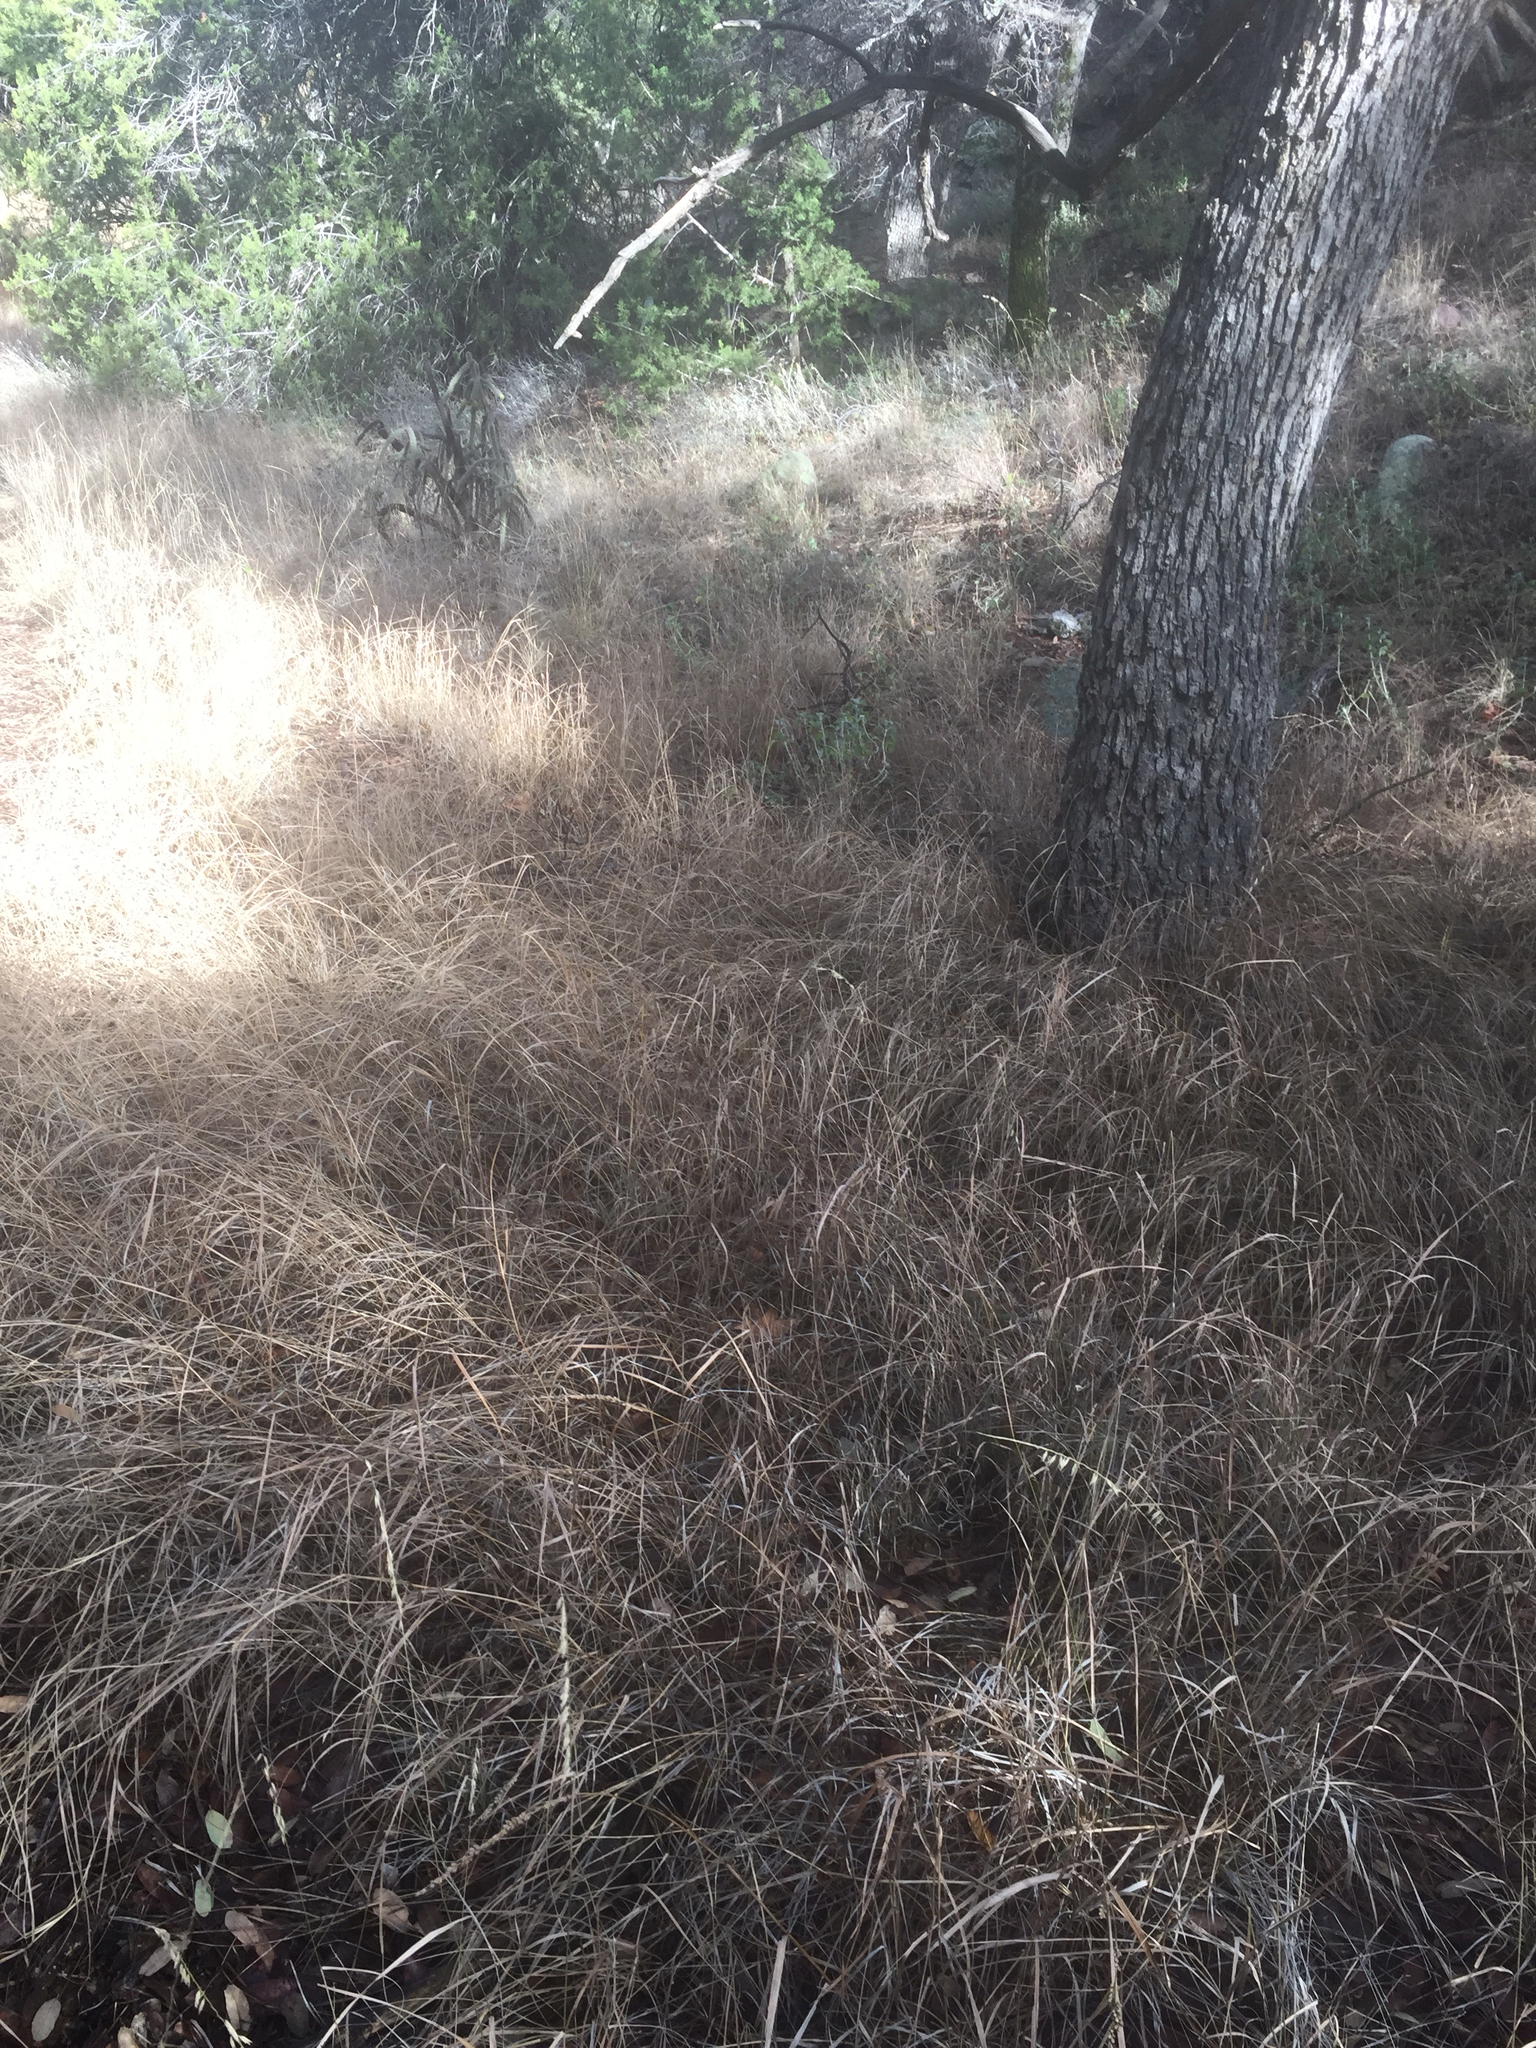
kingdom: Plantae
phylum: Tracheophyta
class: Liliopsida
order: Poales
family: Poaceae
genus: Bouteloua
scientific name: Bouteloua curtipendula
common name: Side-oats grama
